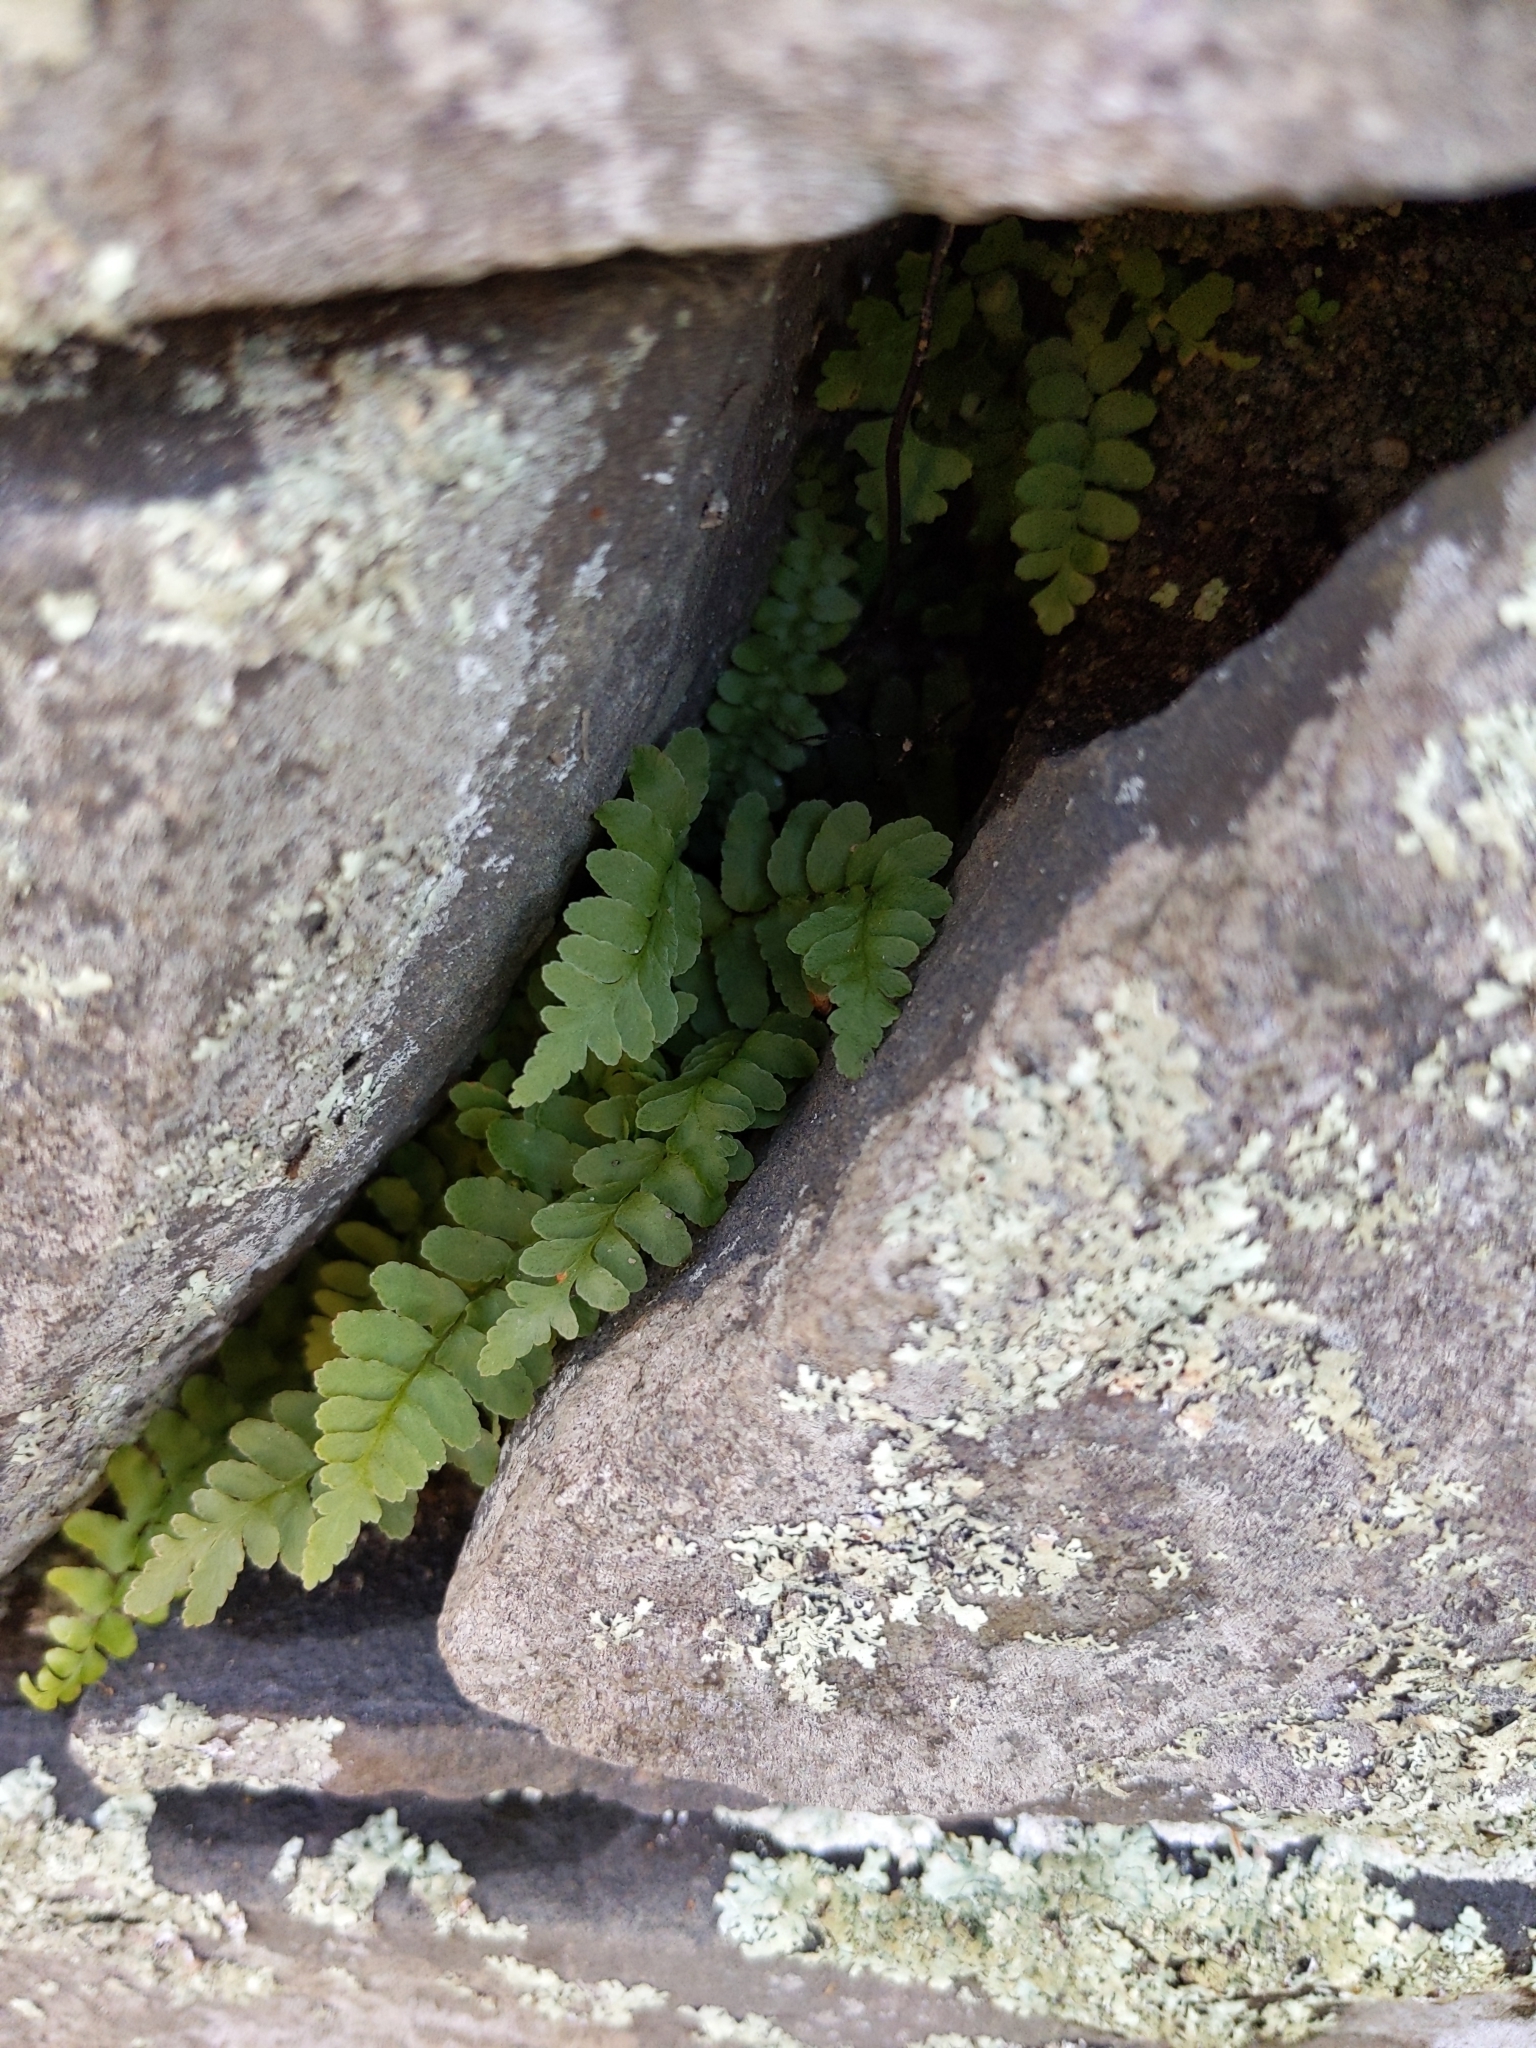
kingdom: Plantae
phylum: Tracheophyta
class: Polypodiopsida
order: Polypodiales
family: Aspleniaceae
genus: Asplenium
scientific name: Asplenium platyneuron
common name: Ebony spleenwort
